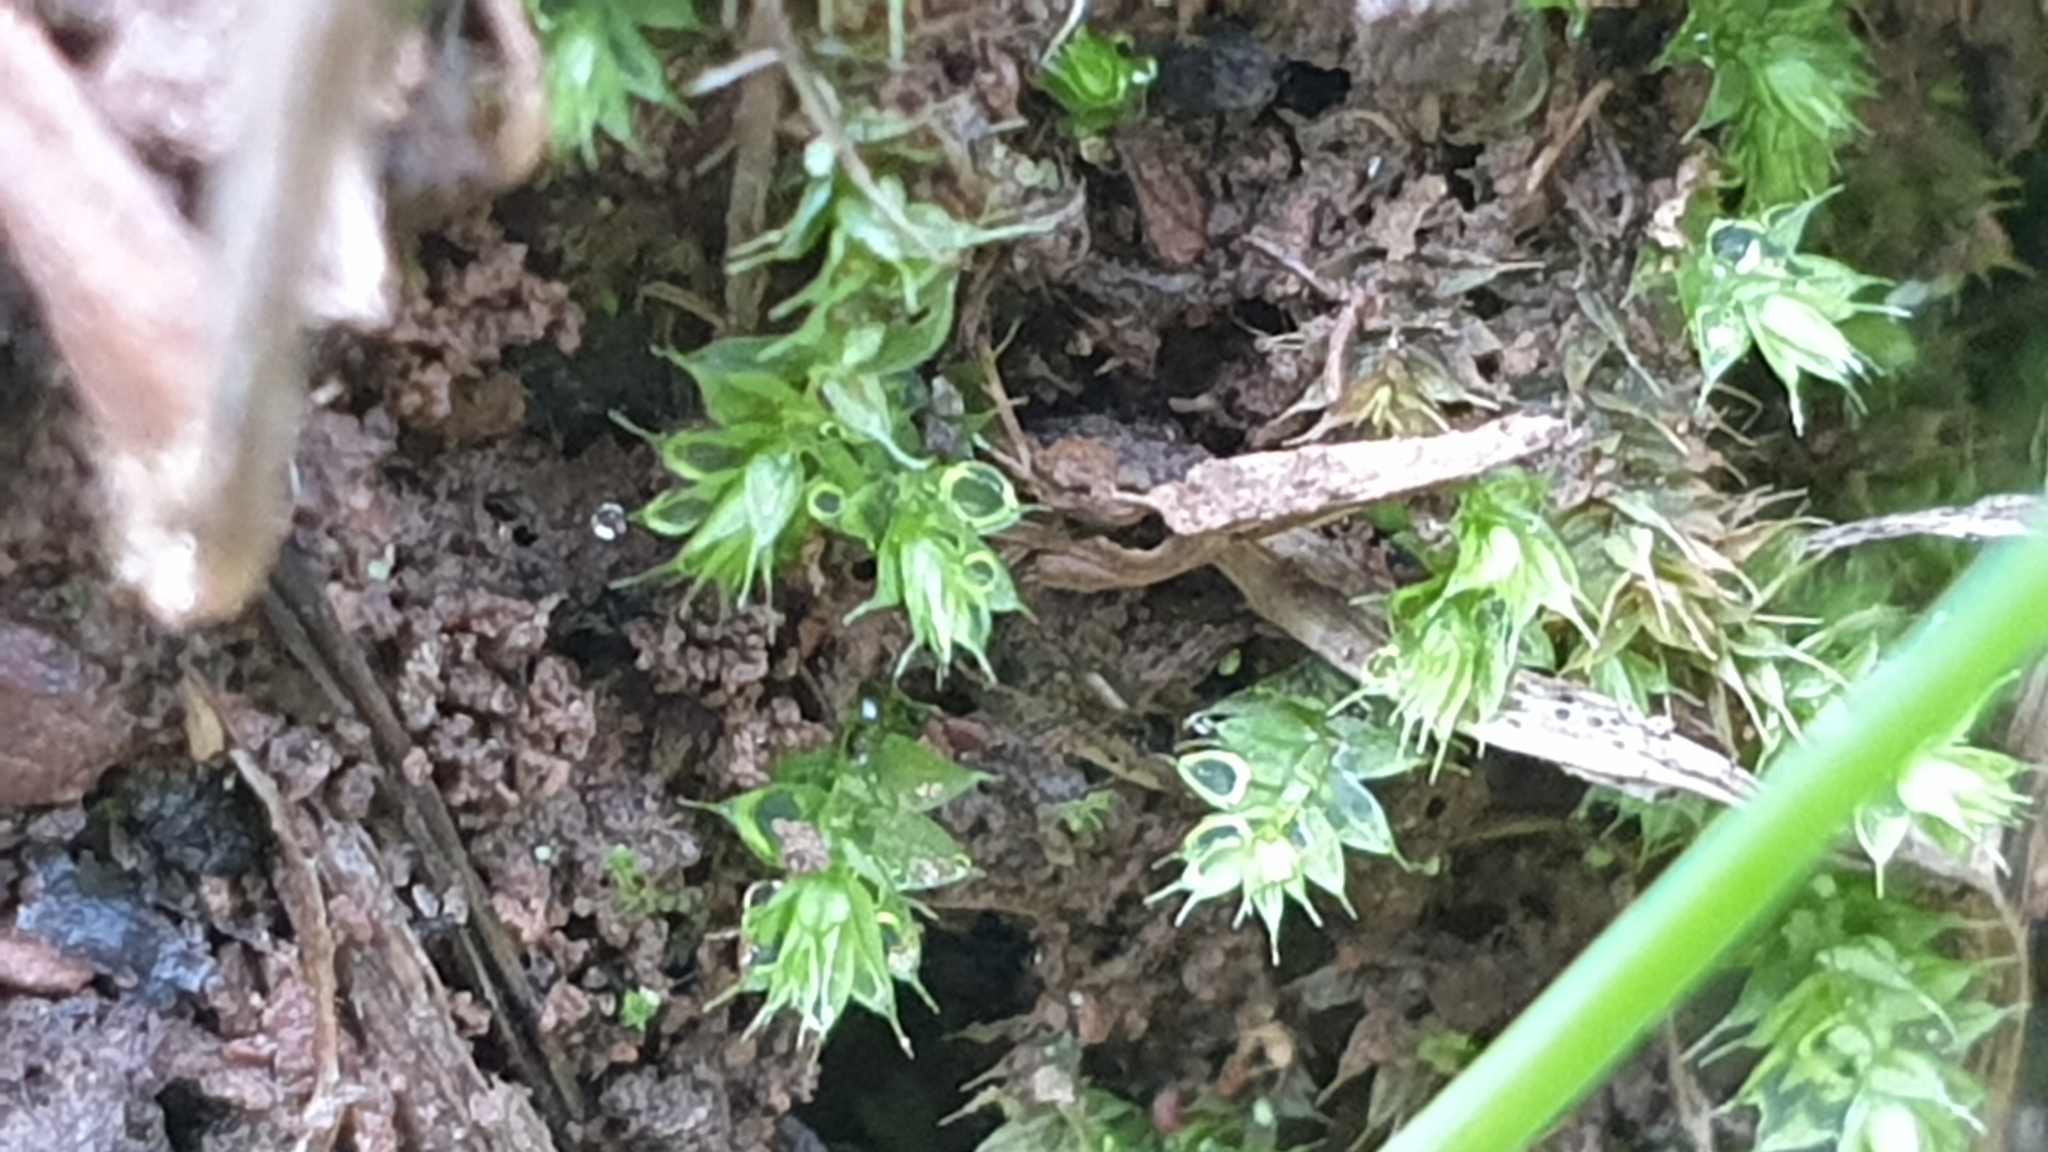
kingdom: Plantae
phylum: Bryophyta
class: Bryopsida
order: Hypnodendrales
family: Racopilaceae
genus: Racopilum
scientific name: Racopilum cuspidigerum
